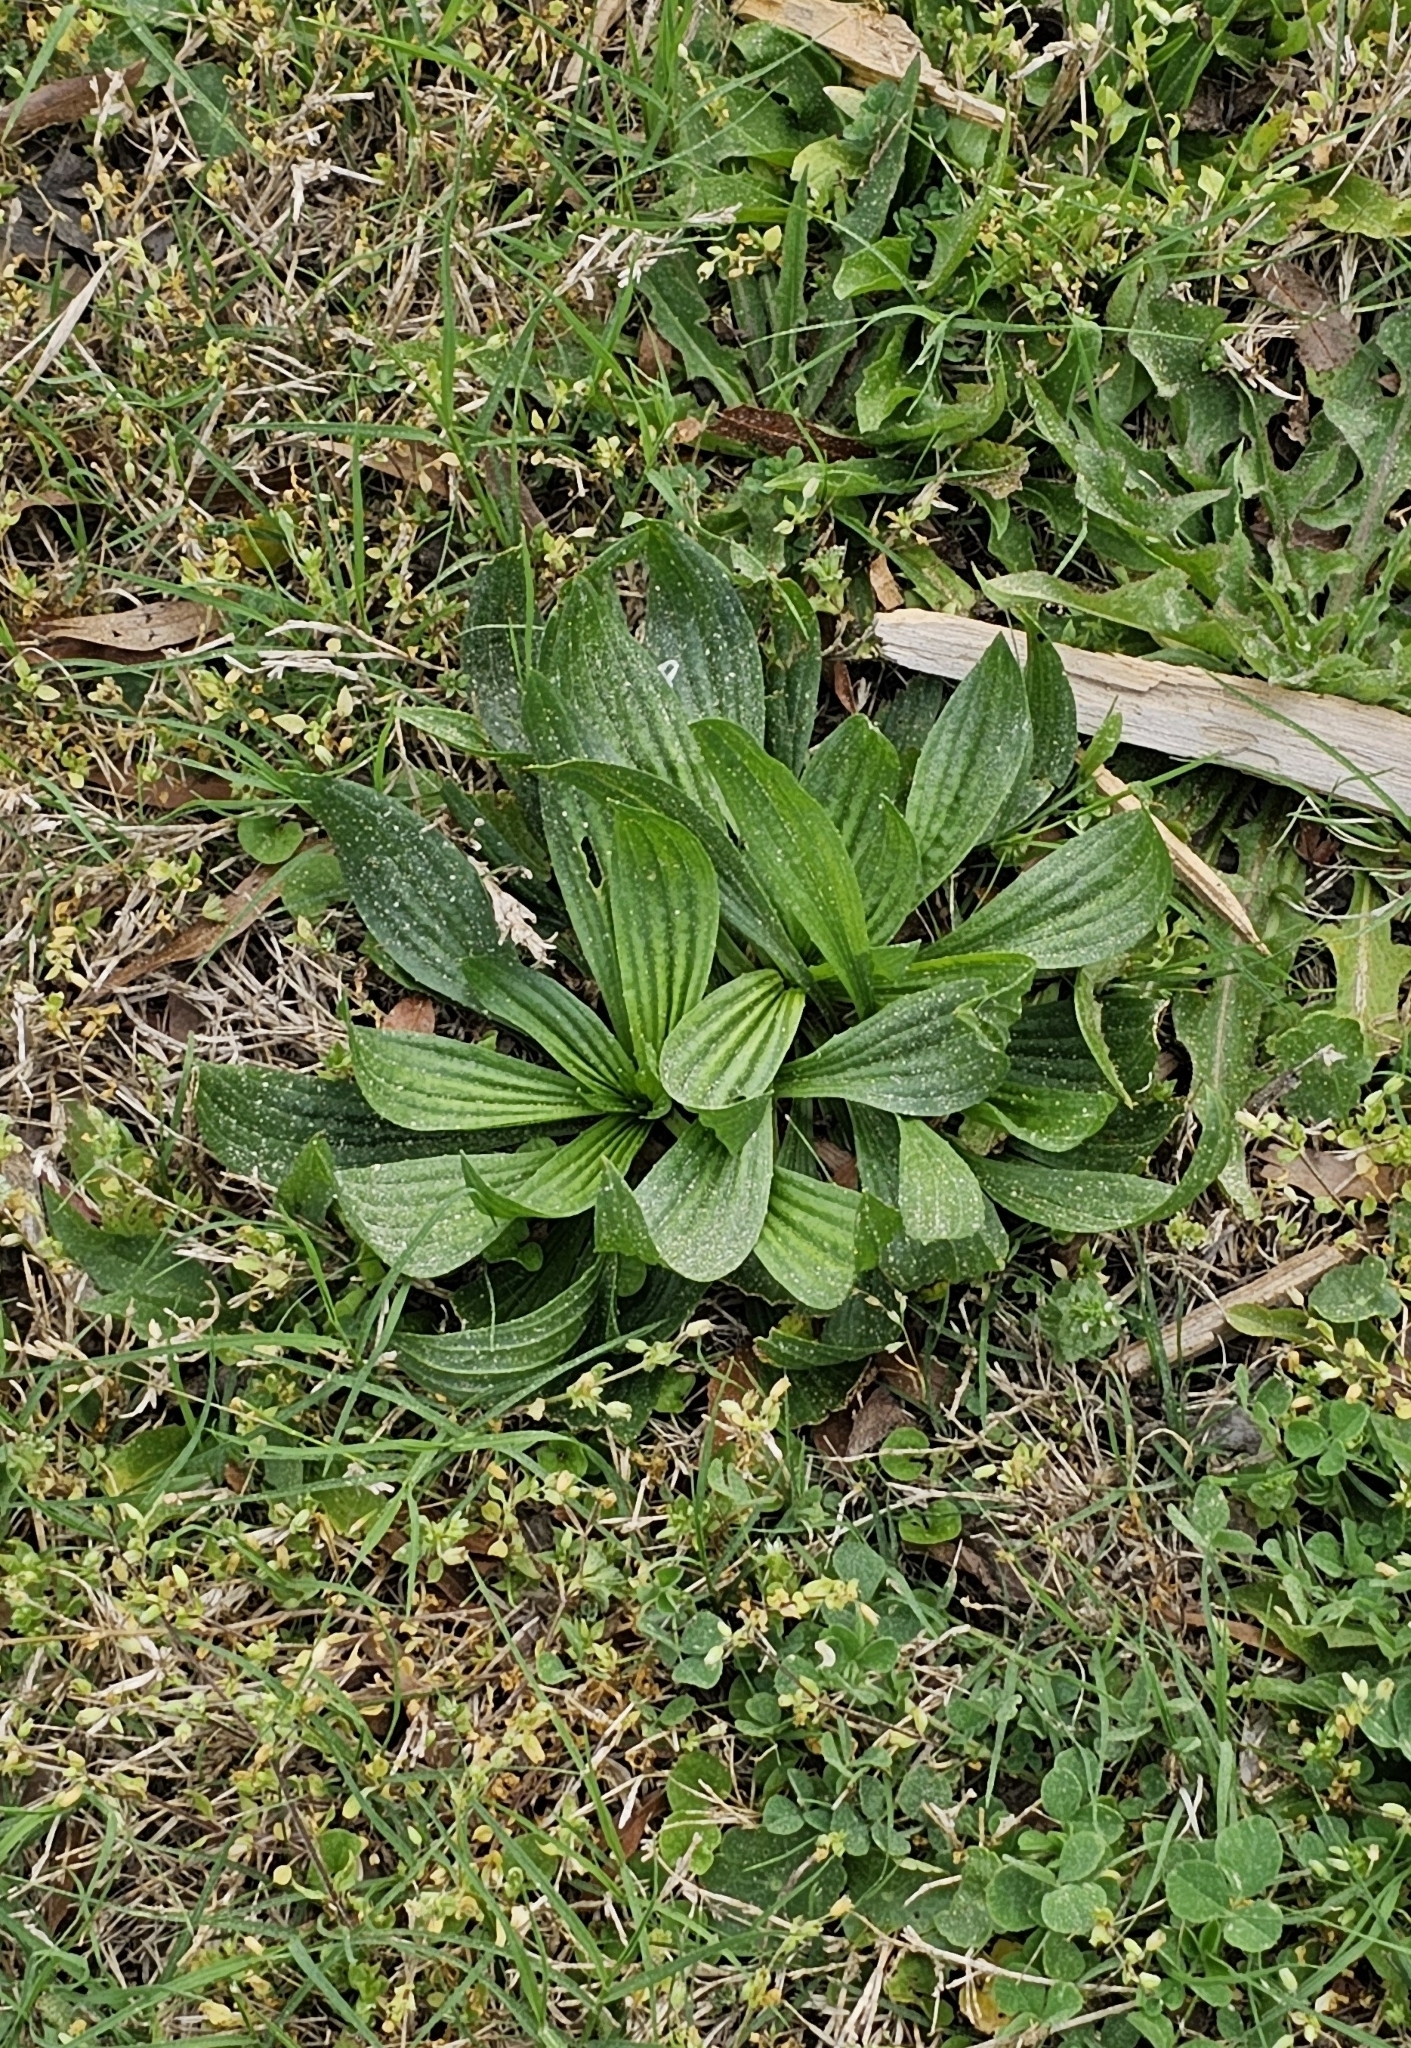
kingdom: Plantae
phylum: Tracheophyta
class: Magnoliopsida
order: Lamiales
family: Plantaginaceae
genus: Plantago
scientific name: Plantago lanceolata
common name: Ribwort plantain
